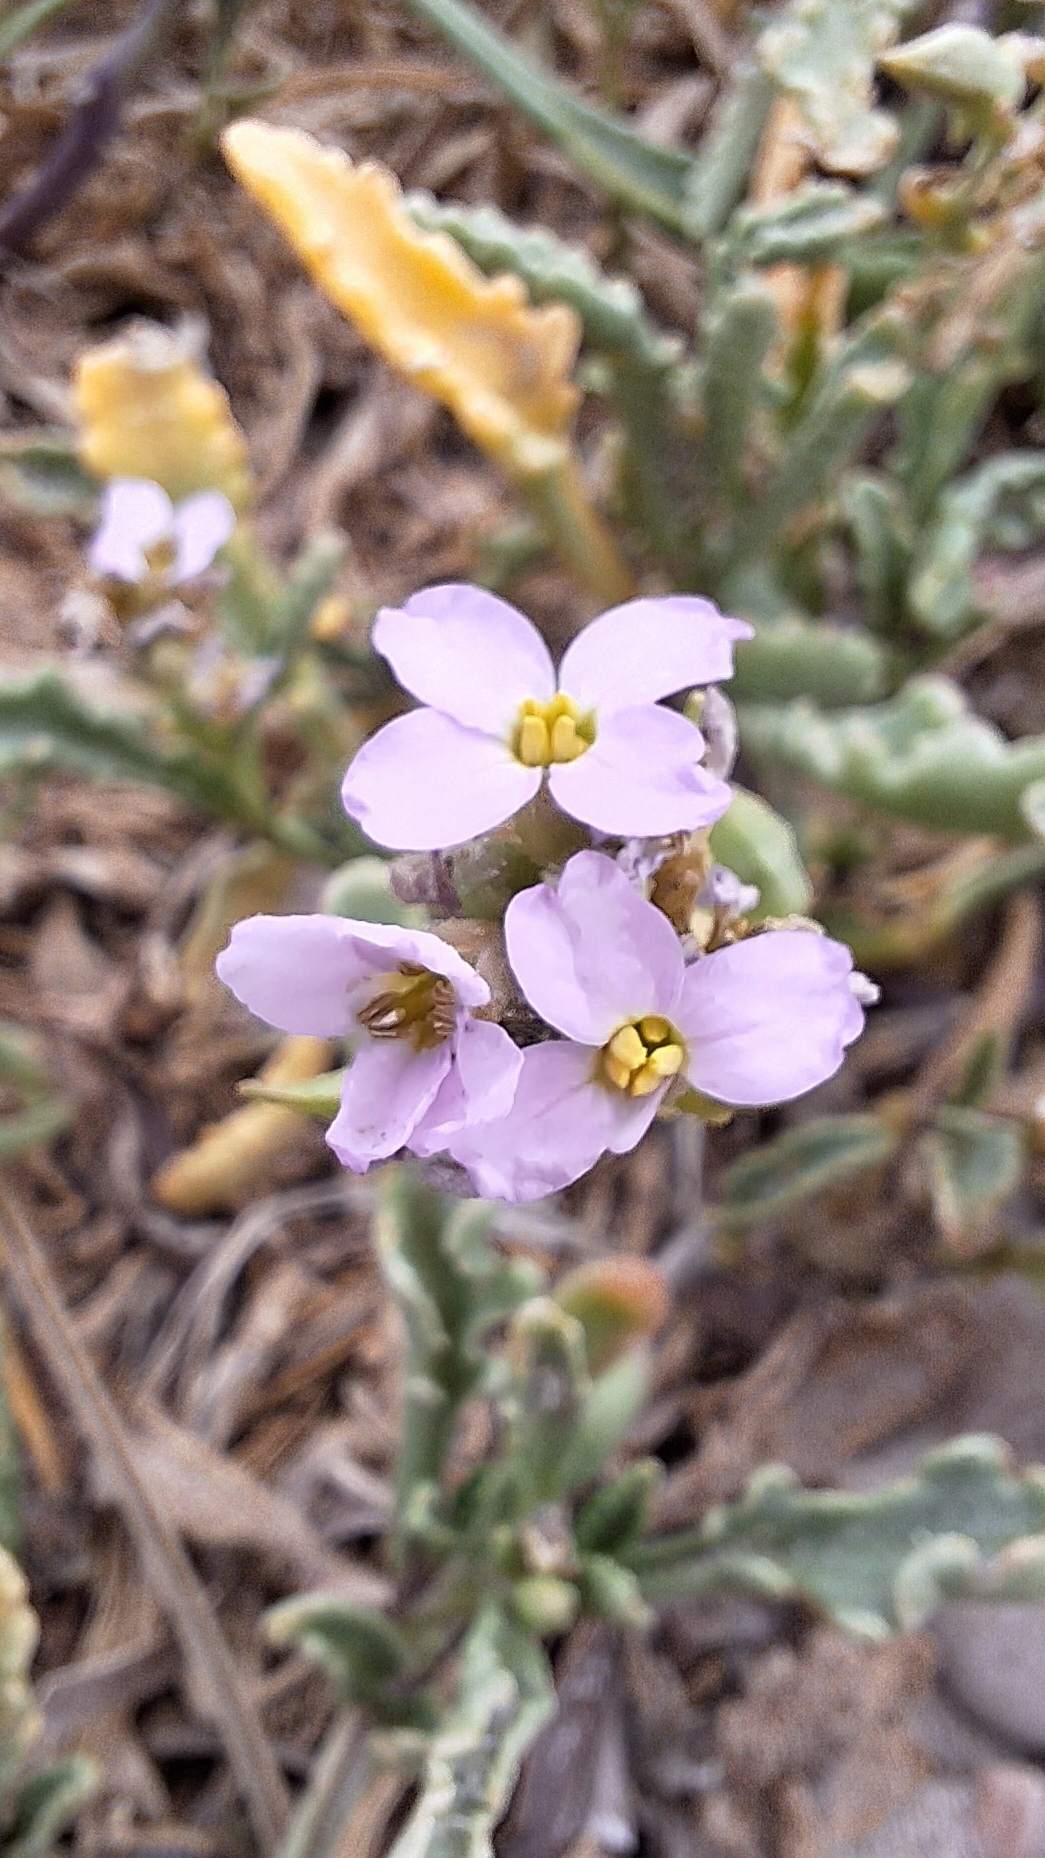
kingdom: Plantae
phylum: Tracheophyta
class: Magnoliopsida
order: Brassicales
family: Brassicaceae
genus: Cakile
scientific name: Cakile maritima
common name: Sea rocket
